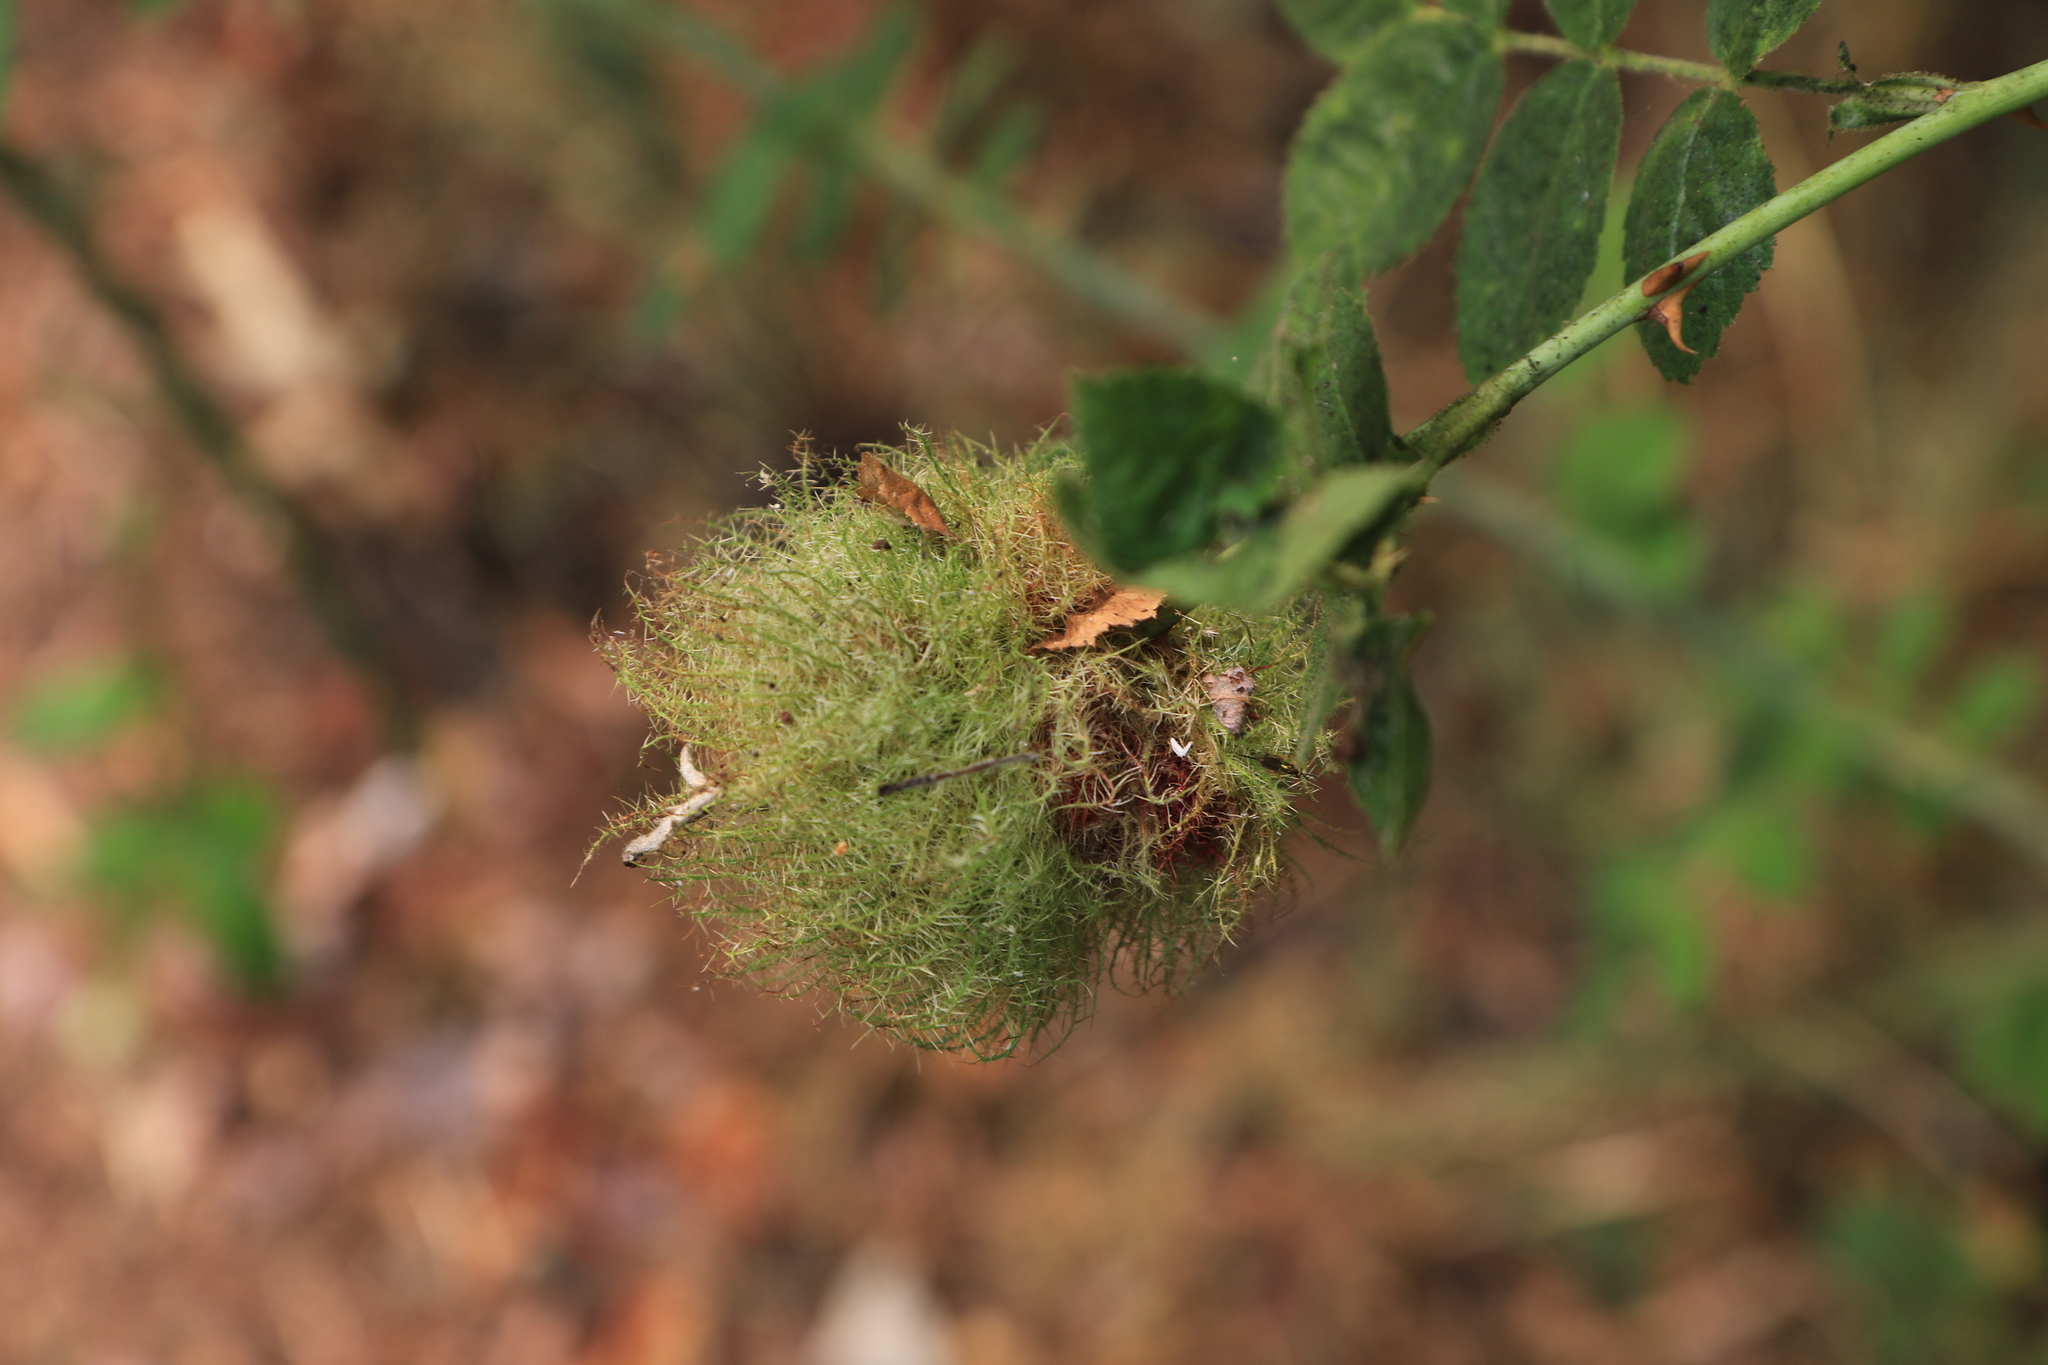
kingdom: Animalia
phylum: Arthropoda
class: Insecta
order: Hymenoptera
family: Cynipidae
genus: Diplolepis
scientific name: Diplolepis rosae
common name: Bedeguar gall
